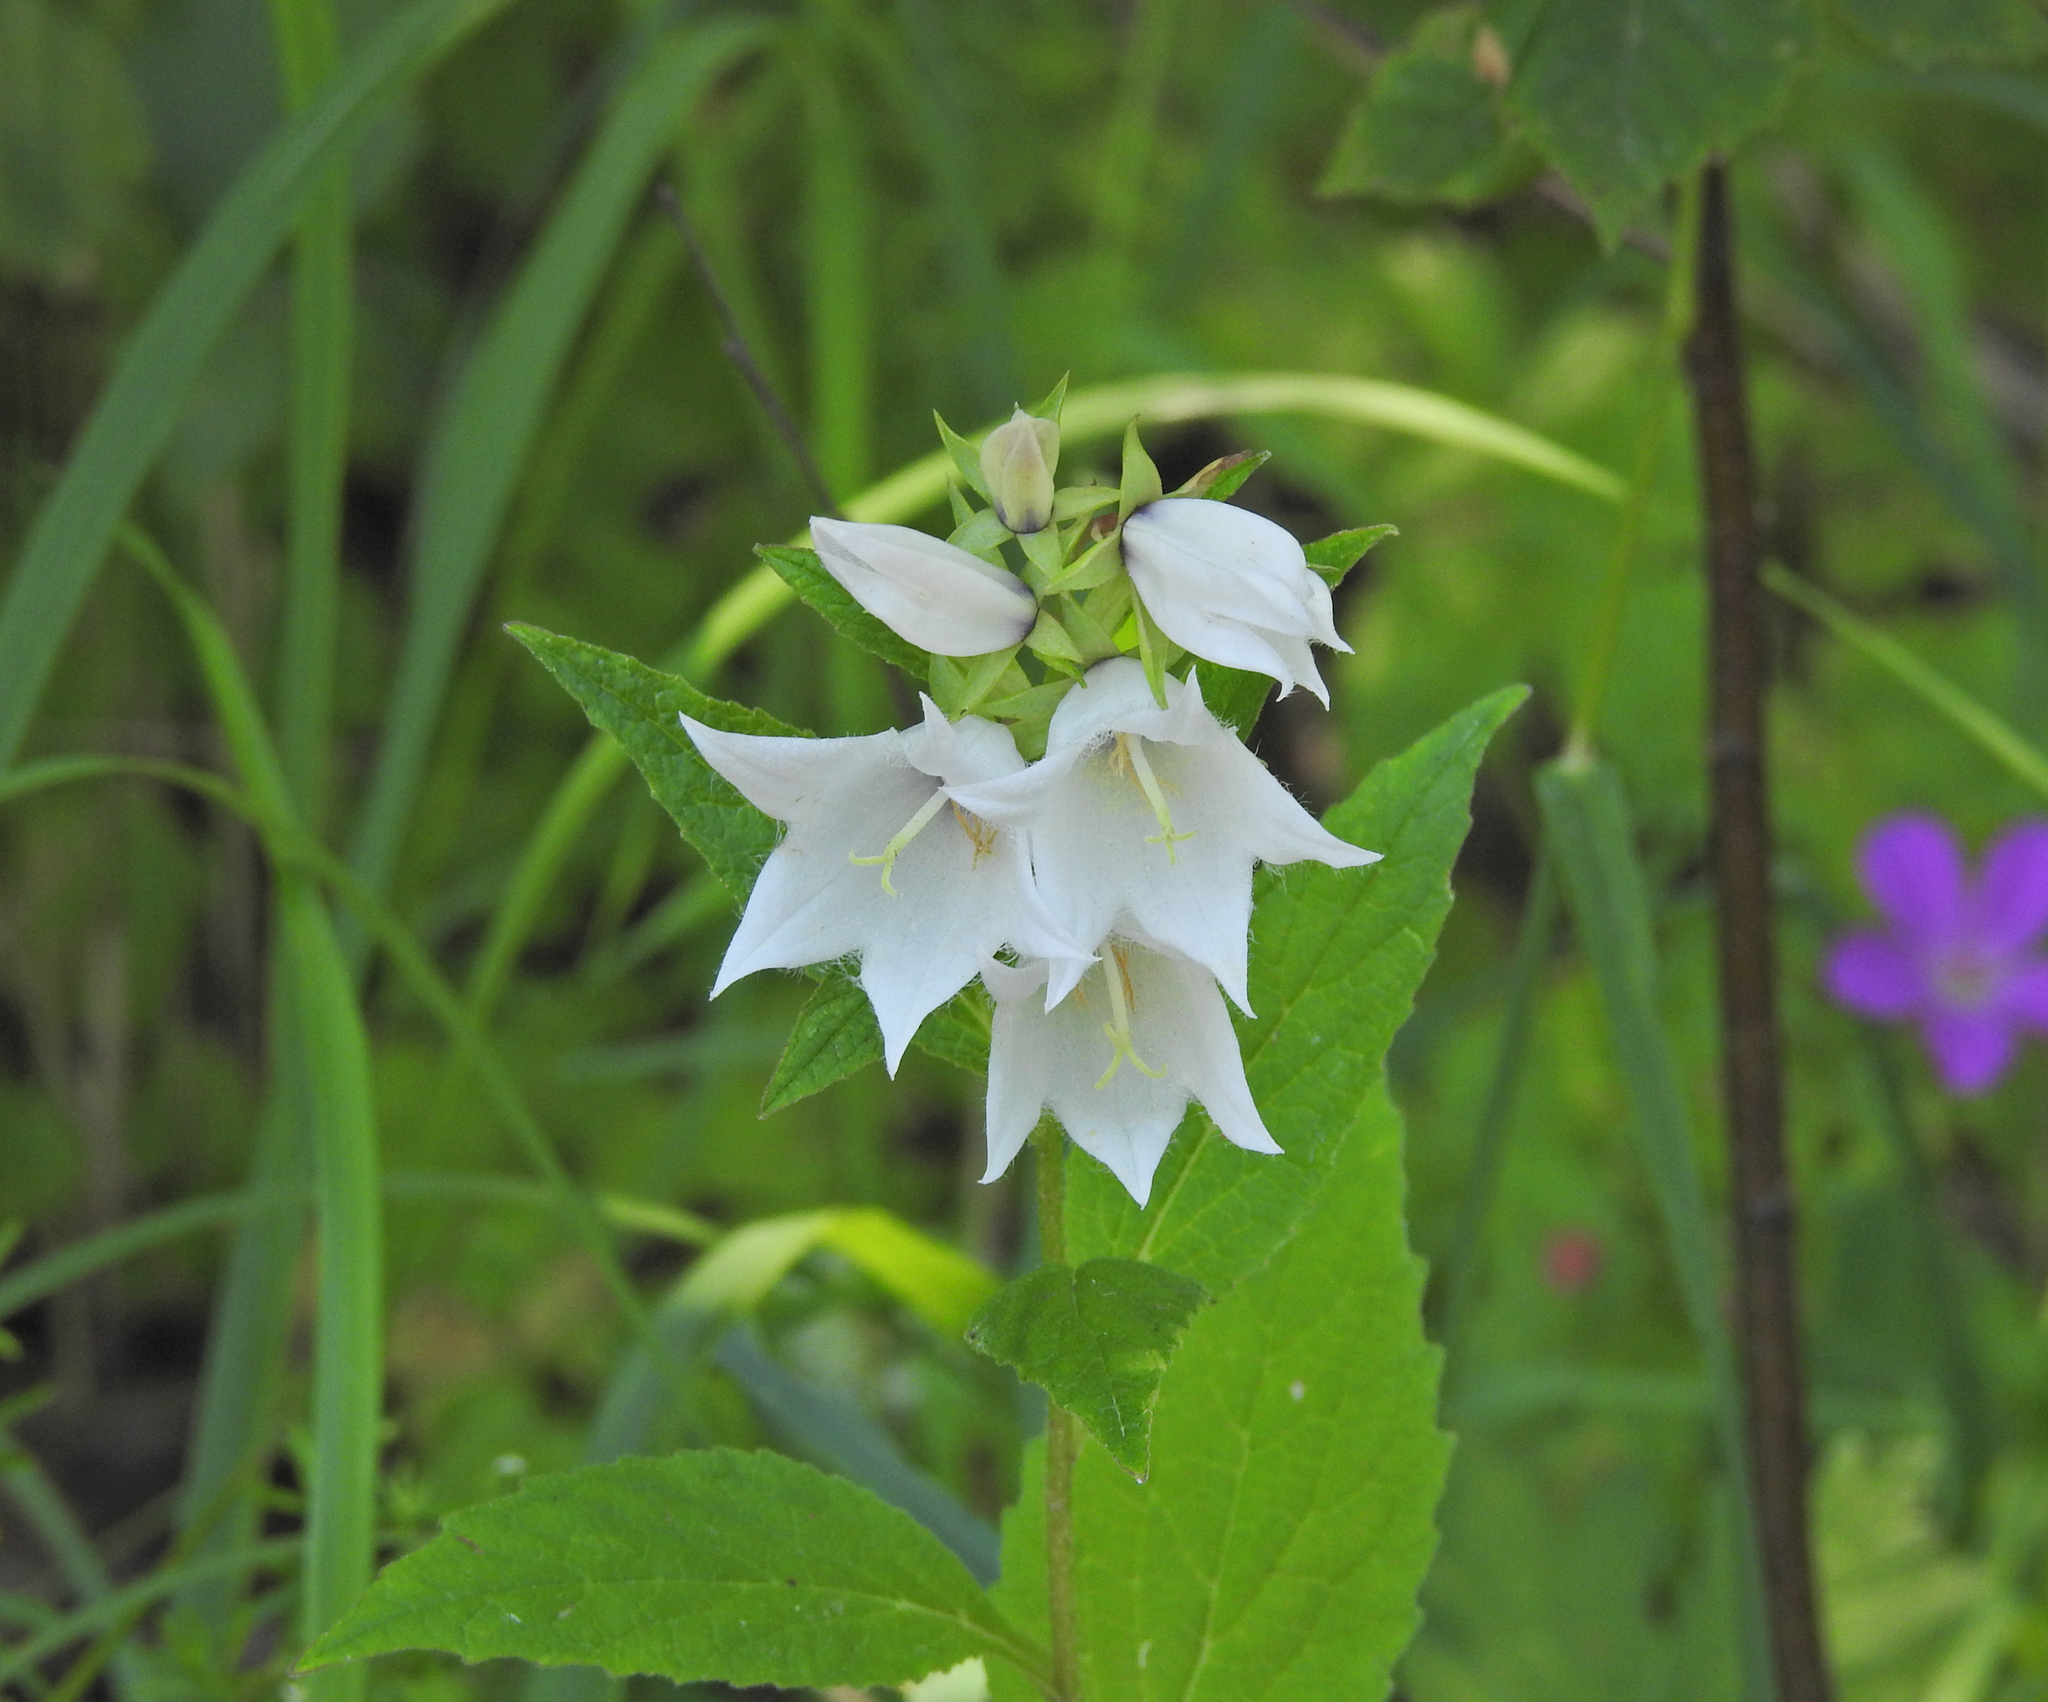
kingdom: Plantae
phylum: Tracheophyta
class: Magnoliopsida
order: Asterales
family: Campanulaceae
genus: Campanula
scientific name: Campanula latifolia
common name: Giant bellflower
